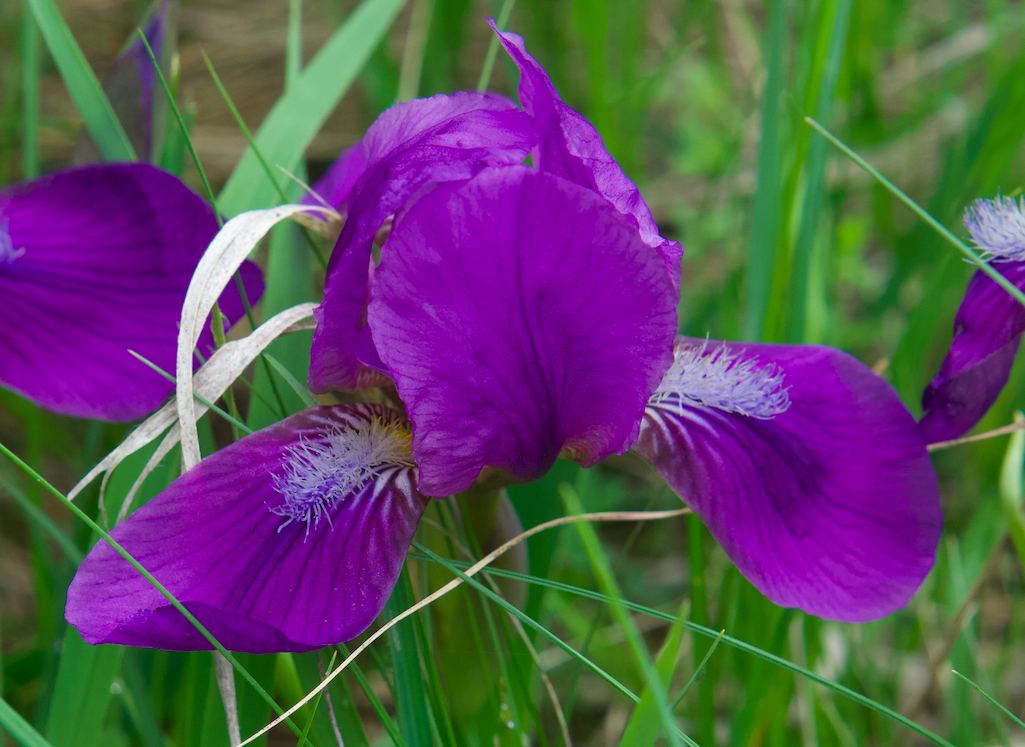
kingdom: Plantae
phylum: Tracheophyta
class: Liliopsida
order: Asparagales
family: Iridaceae
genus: Iris
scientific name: Iris aphylla
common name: Stool iris
